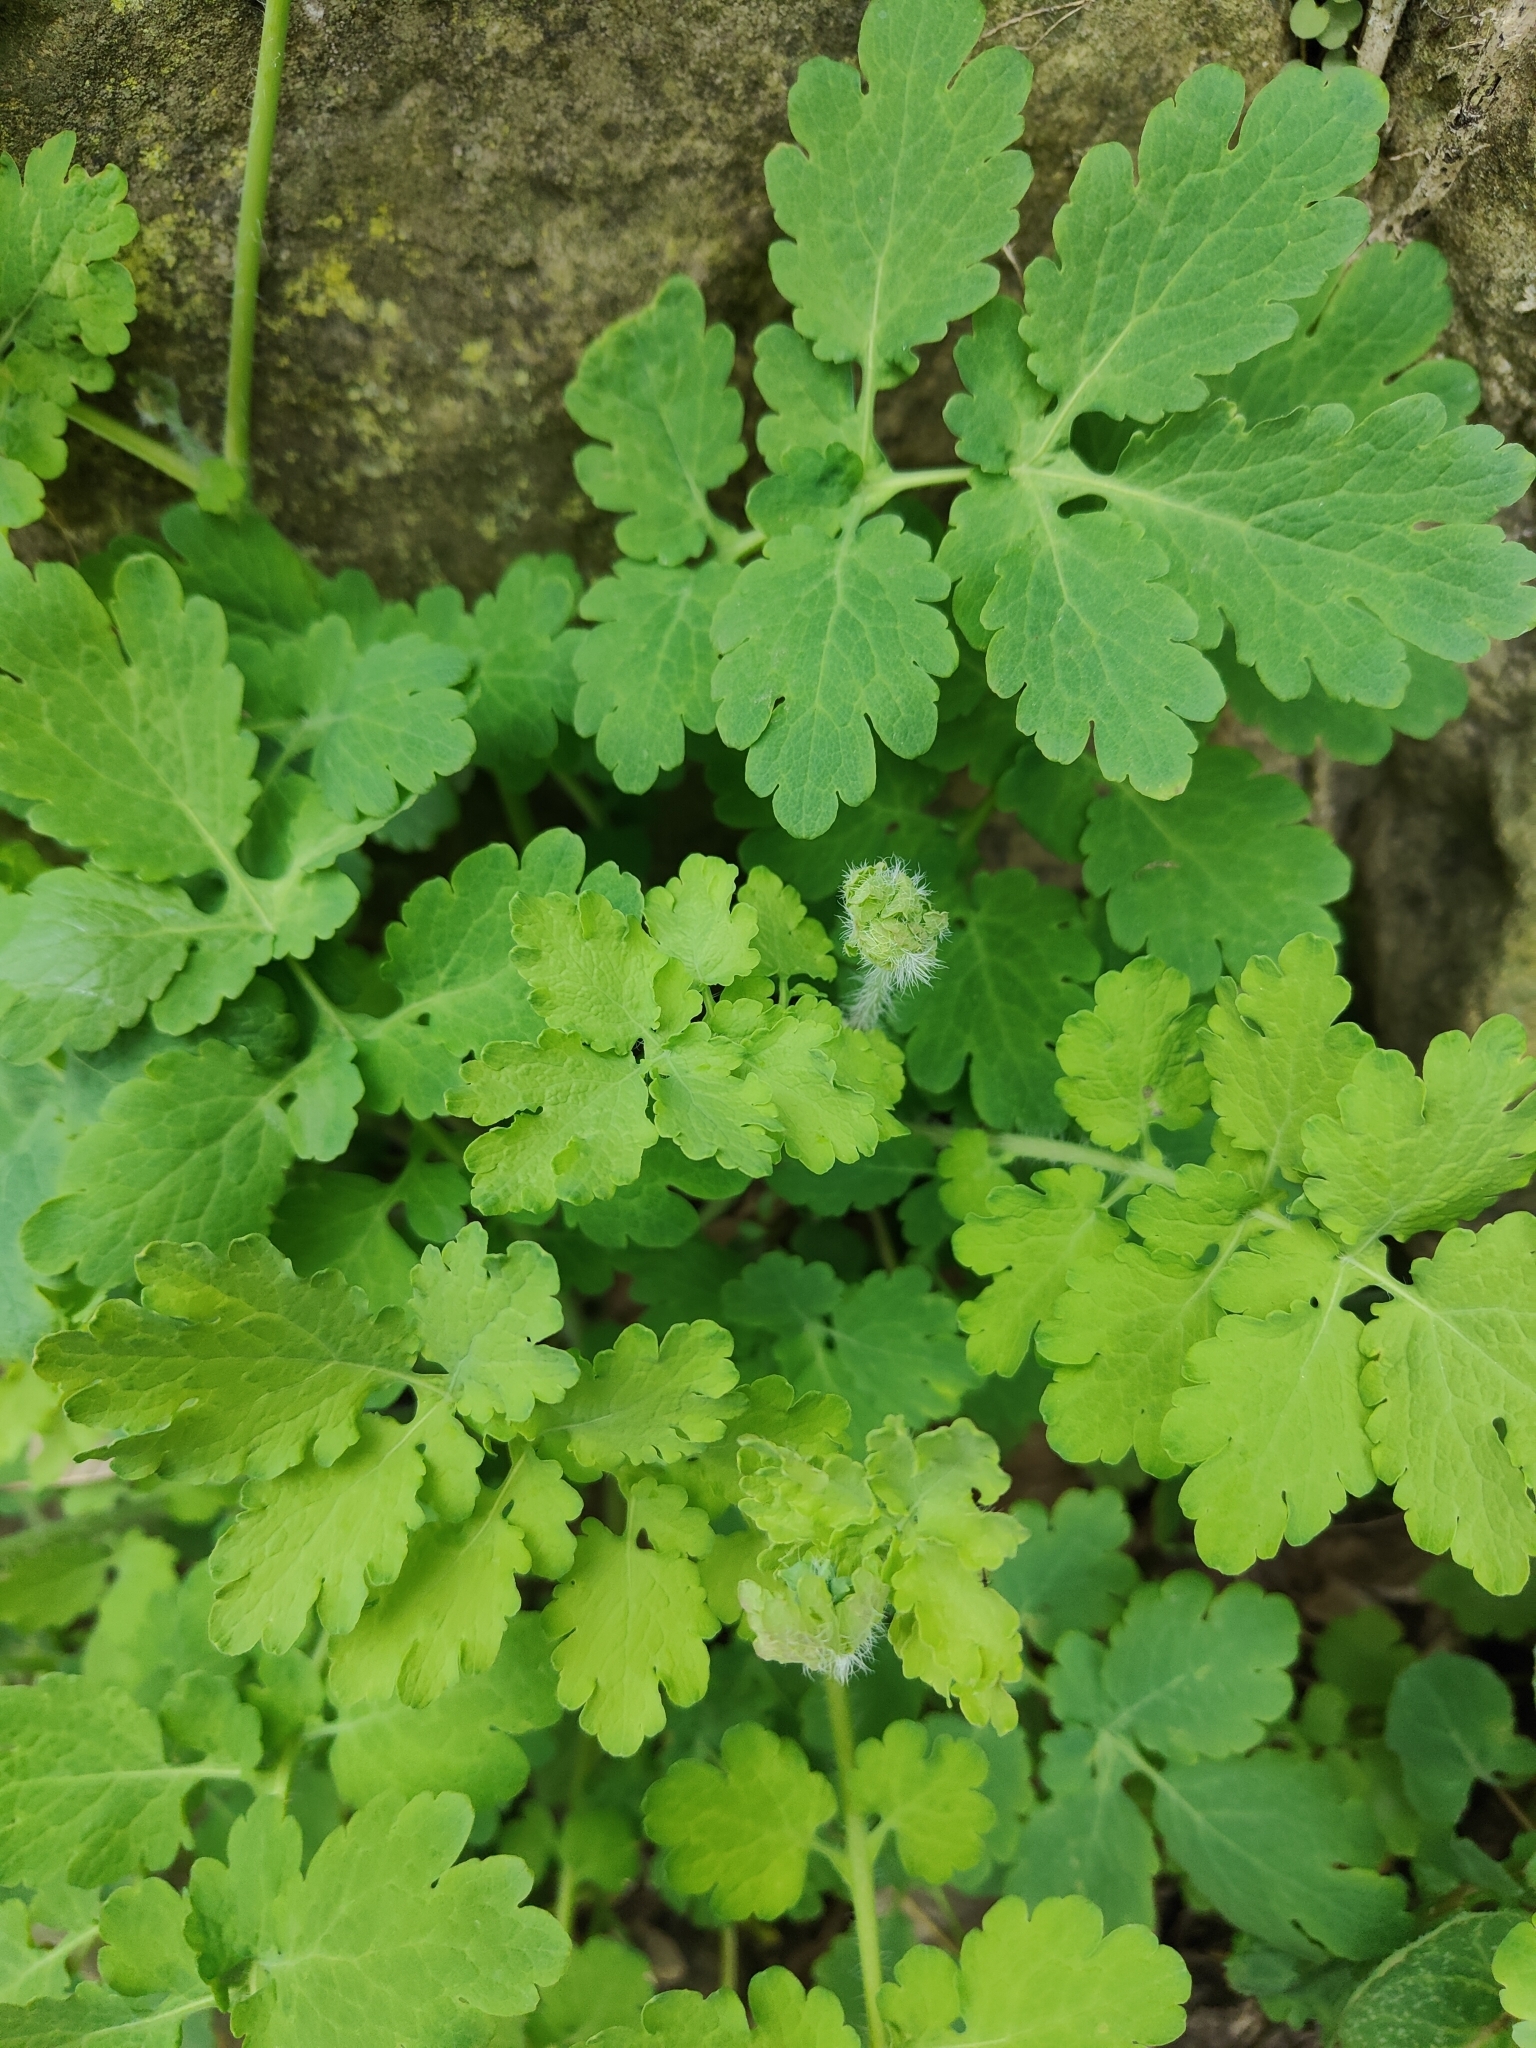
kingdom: Plantae
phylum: Tracheophyta
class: Magnoliopsida
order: Ranunculales
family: Papaveraceae
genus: Chelidonium
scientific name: Chelidonium majus
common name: Greater celandine
